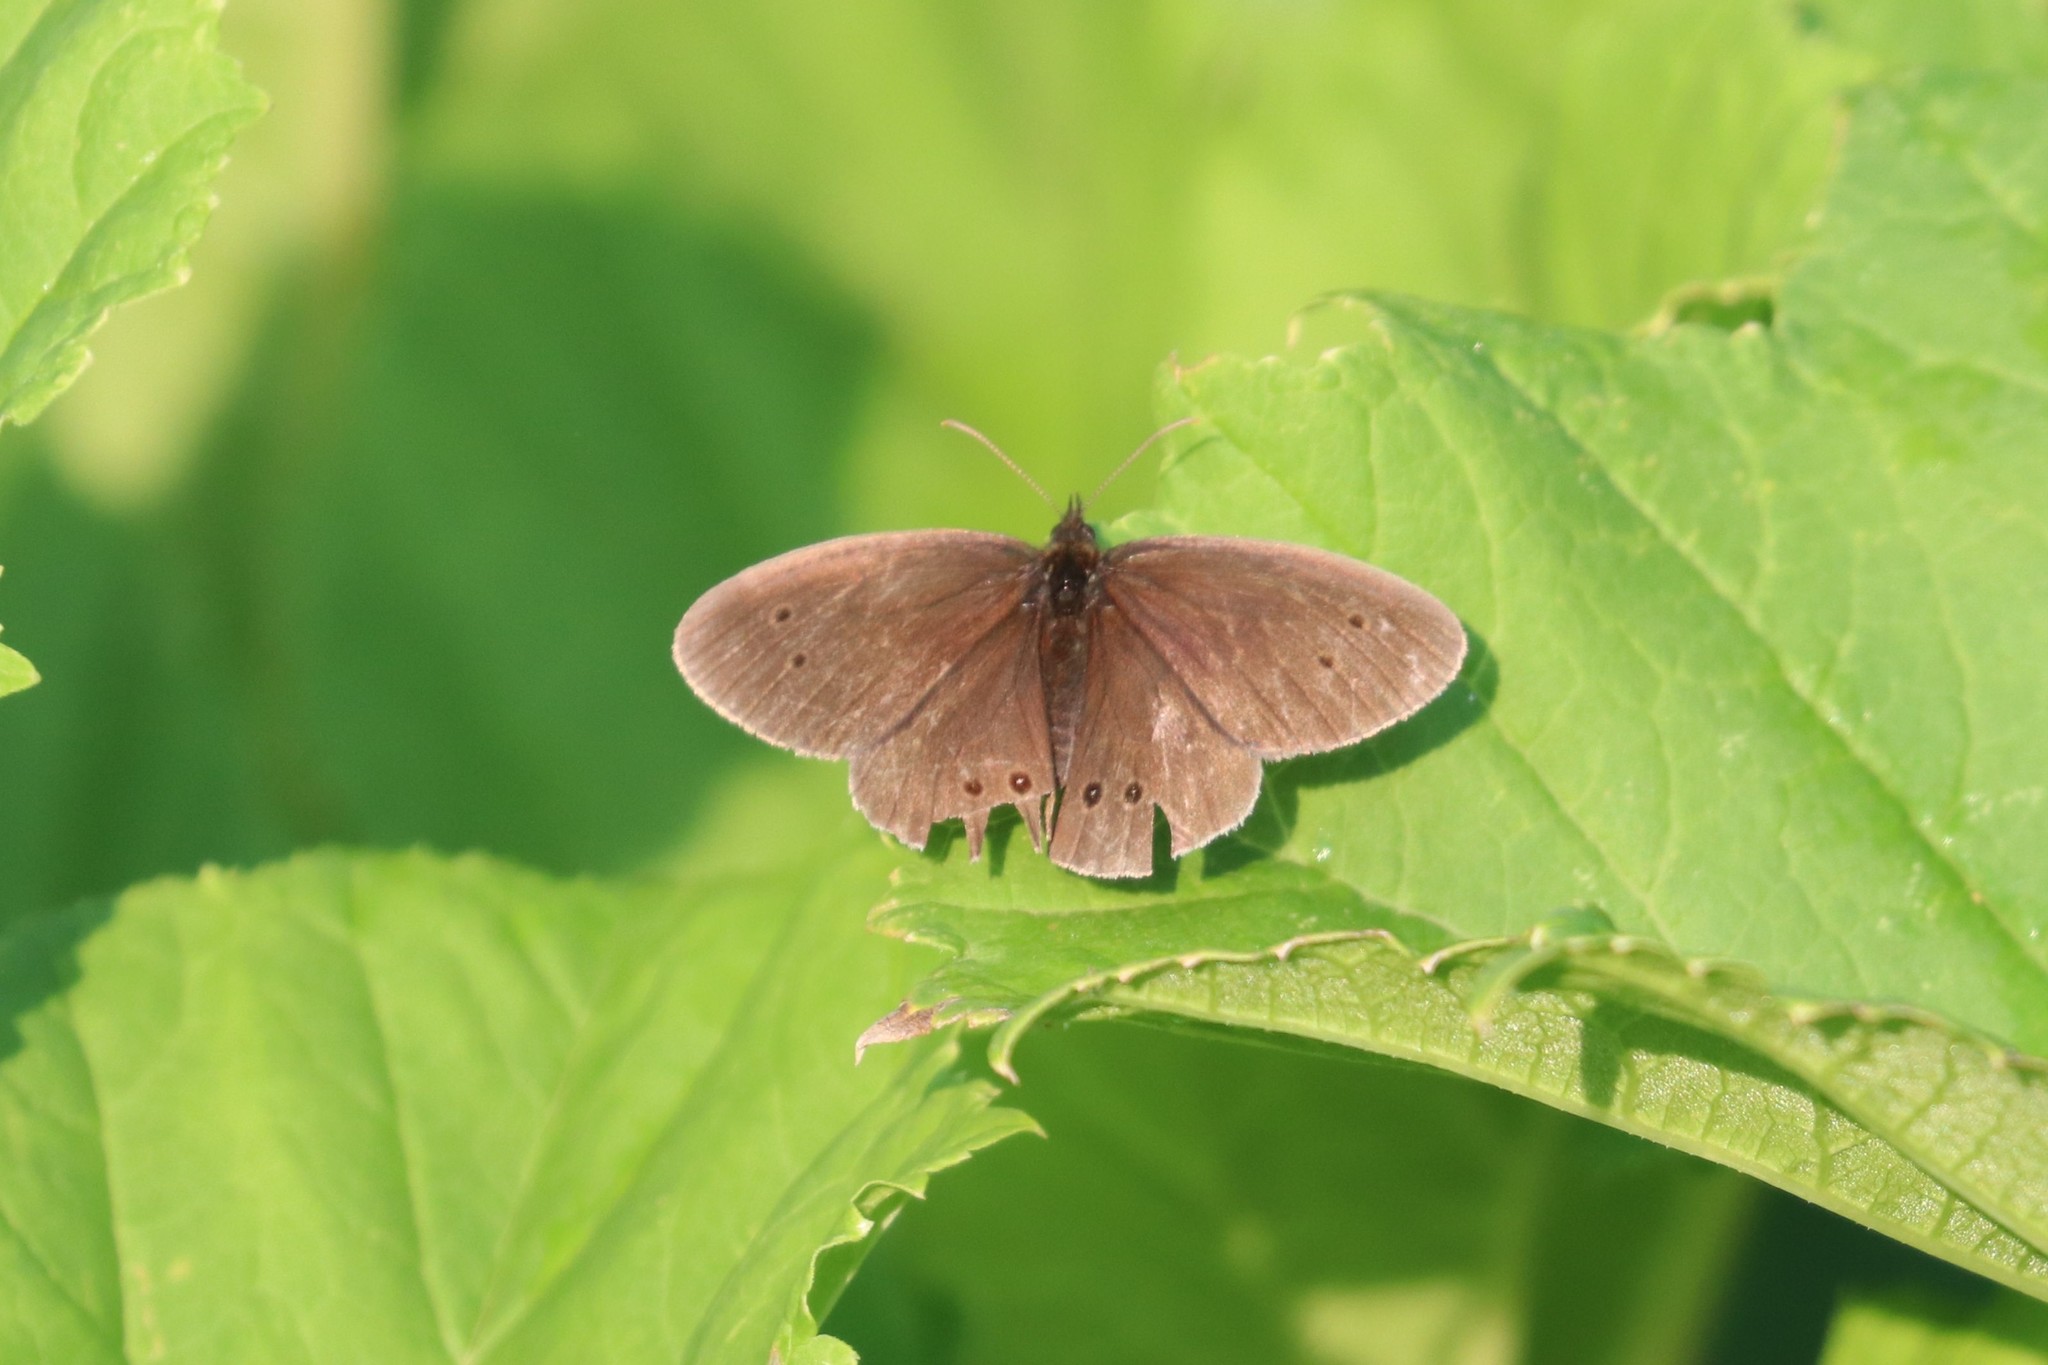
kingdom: Animalia
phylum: Arthropoda
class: Insecta
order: Lepidoptera
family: Nymphalidae
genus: Aphantopus
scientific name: Aphantopus hyperantus
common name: Ringlet
